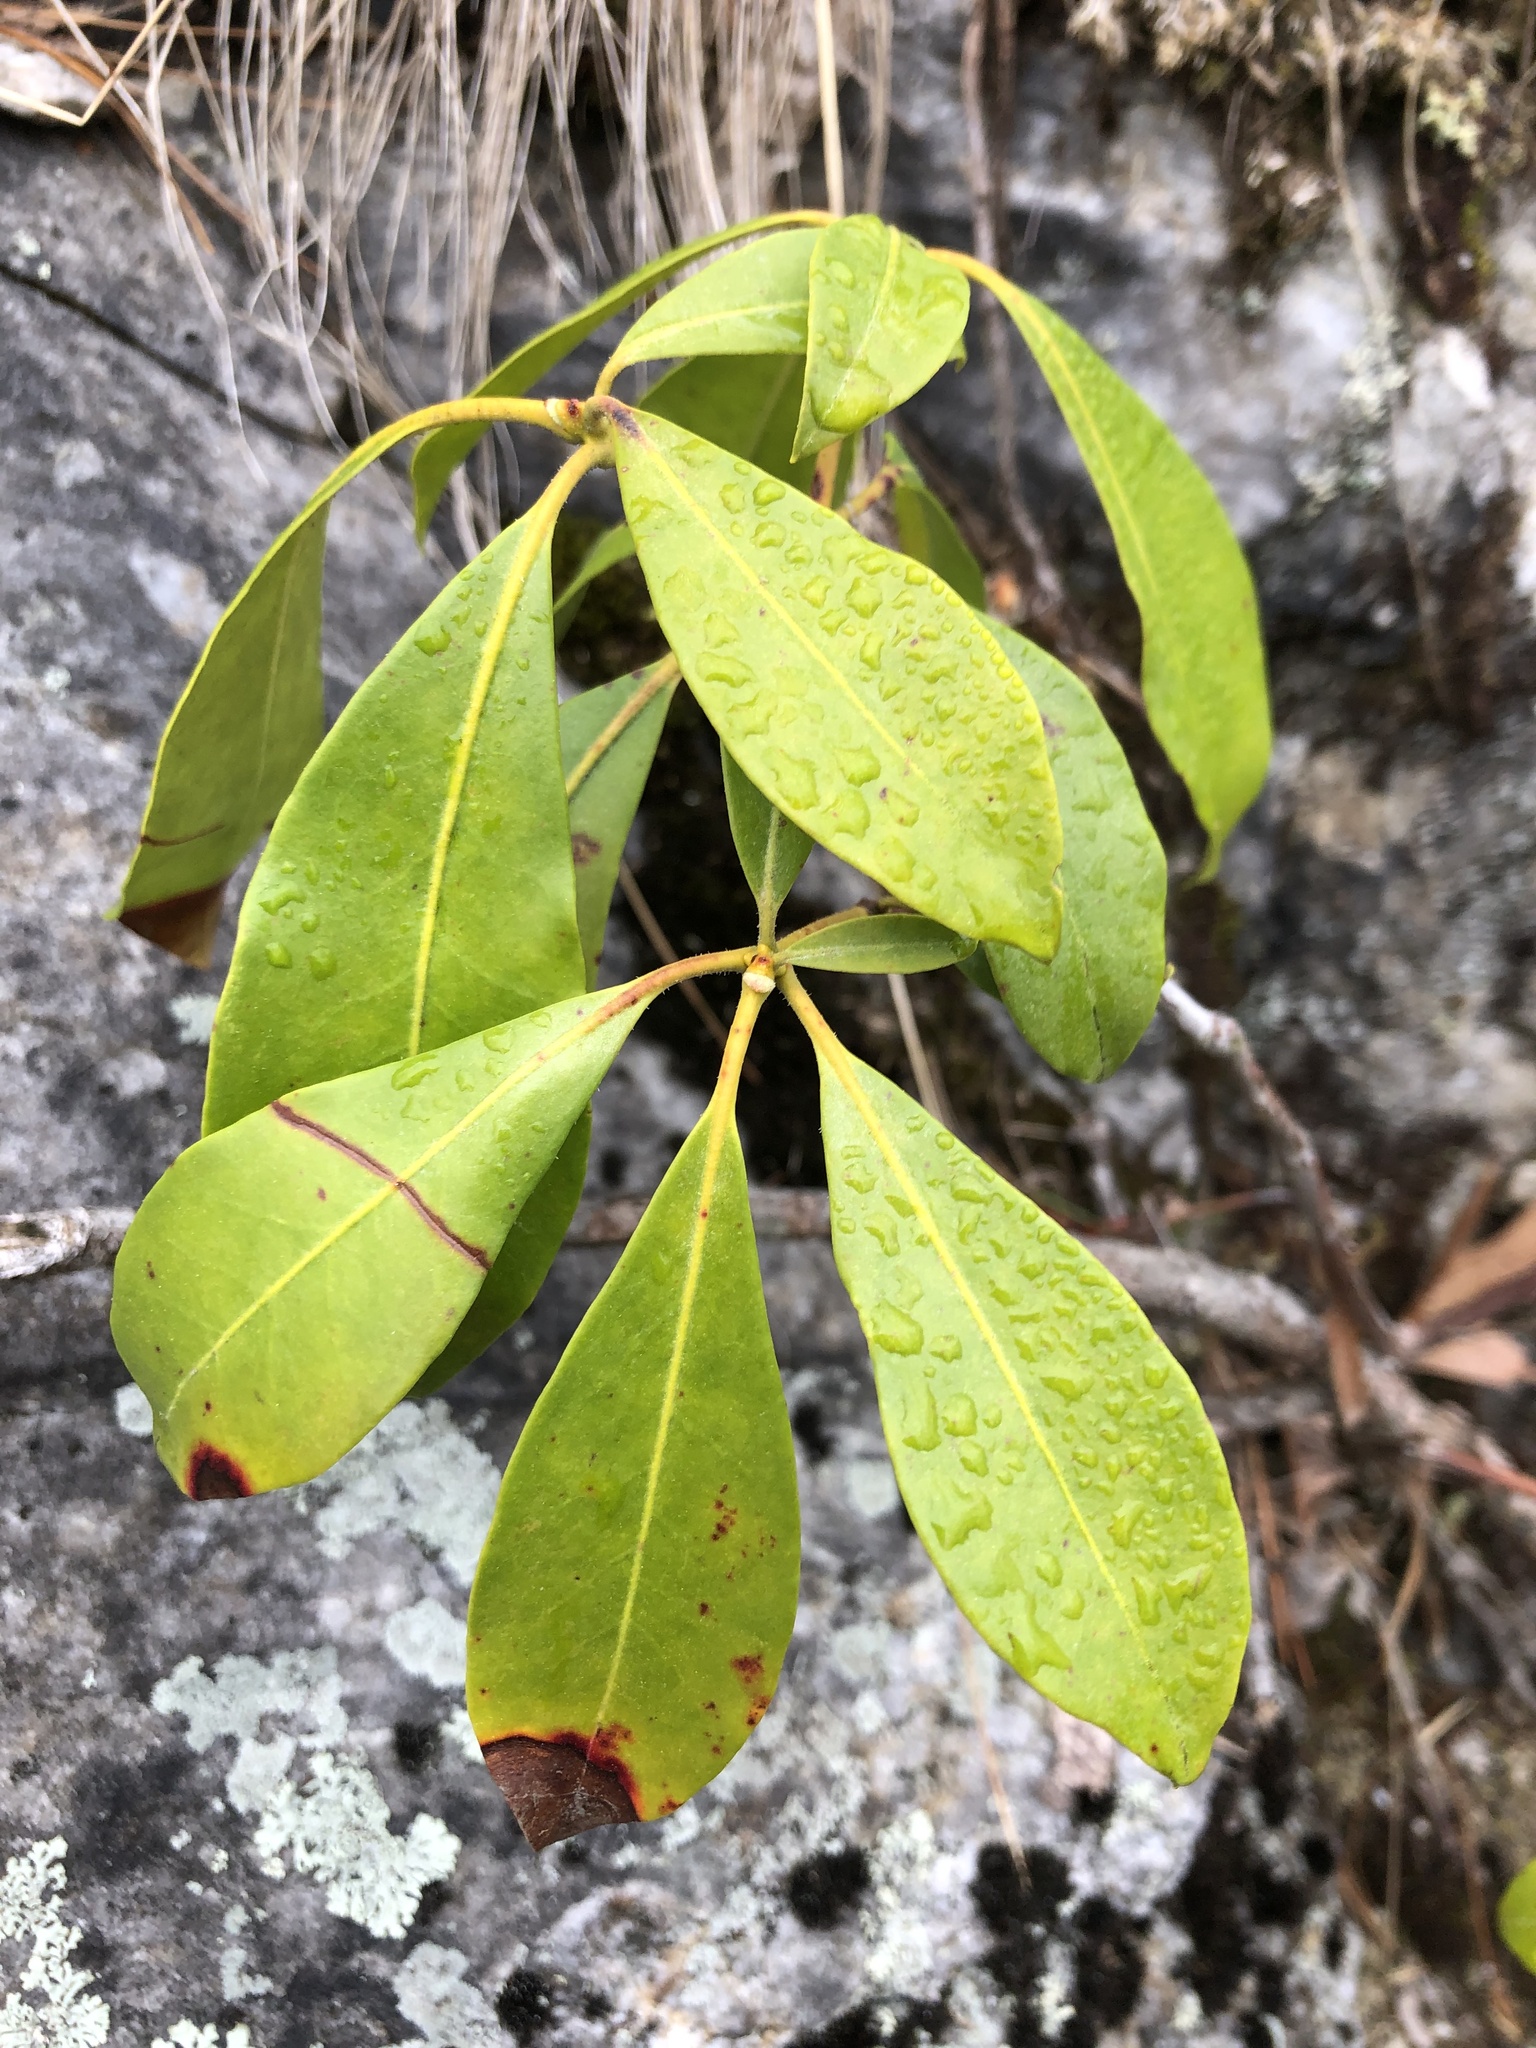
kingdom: Plantae
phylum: Tracheophyta
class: Magnoliopsida
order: Ericales
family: Ericaceae
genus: Kalmia
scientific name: Kalmia latifolia
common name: Mountain-laurel
